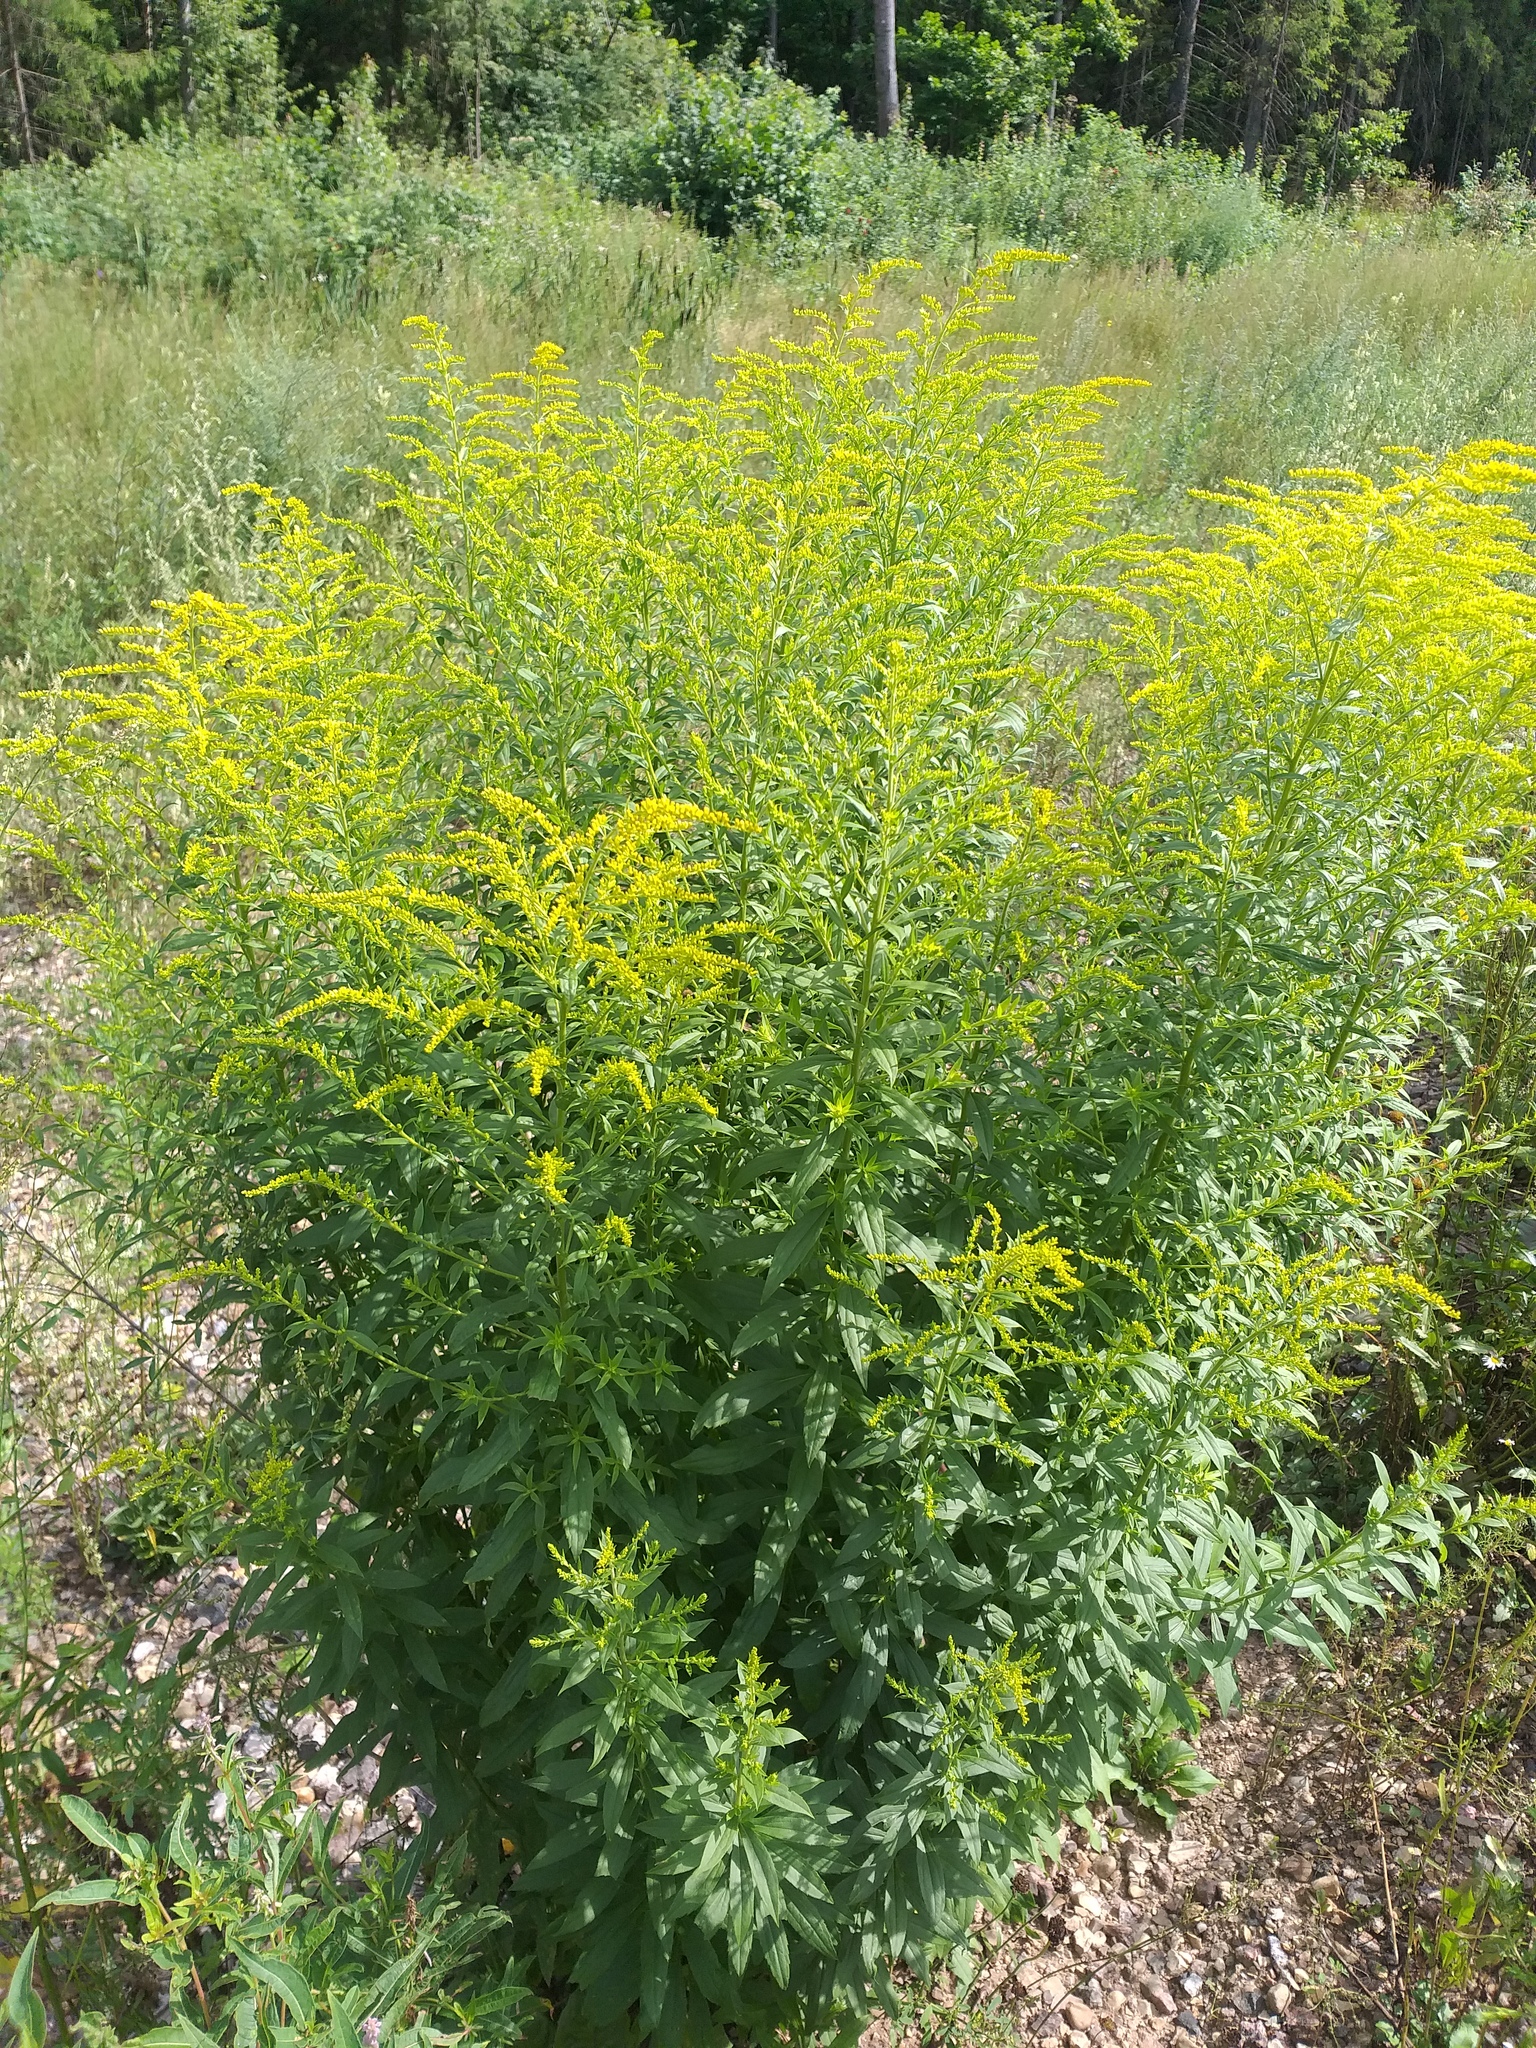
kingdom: Plantae
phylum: Tracheophyta
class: Magnoliopsida
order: Asterales
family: Asteraceae
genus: Solidago
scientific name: Solidago canadensis
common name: Canada goldenrod
